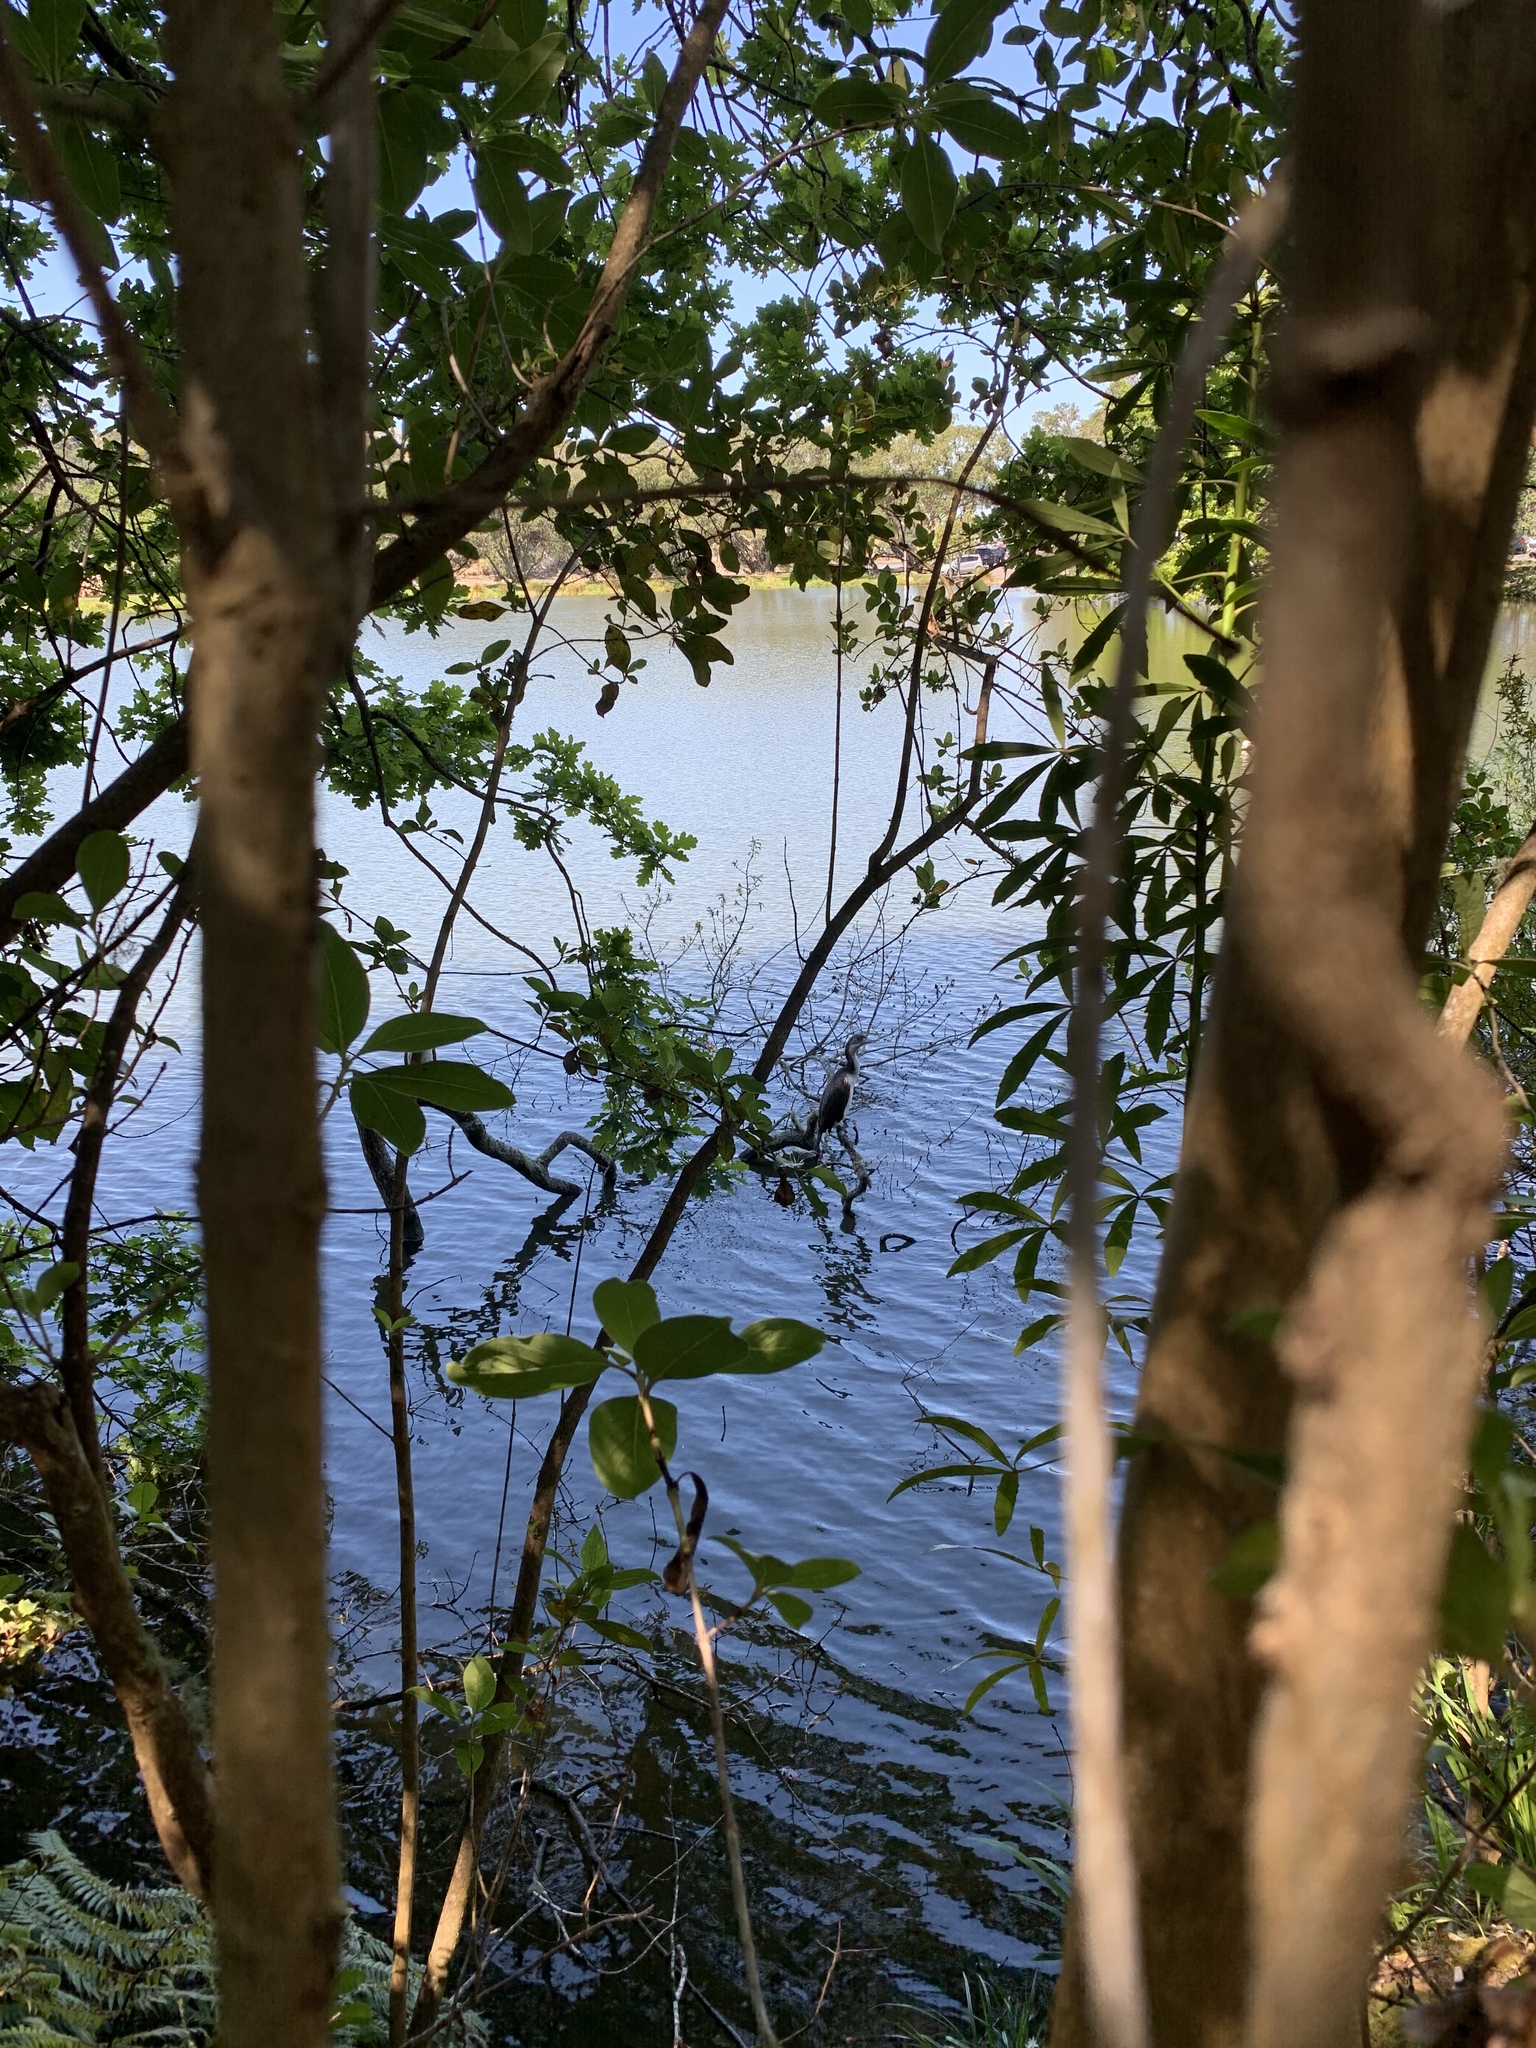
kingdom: Animalia
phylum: Chordata
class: Aves
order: Suliformes
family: Phalacrocoracidae
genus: Phalacrocorax
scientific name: Phalacrocorax varius
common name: Pied cormorant
